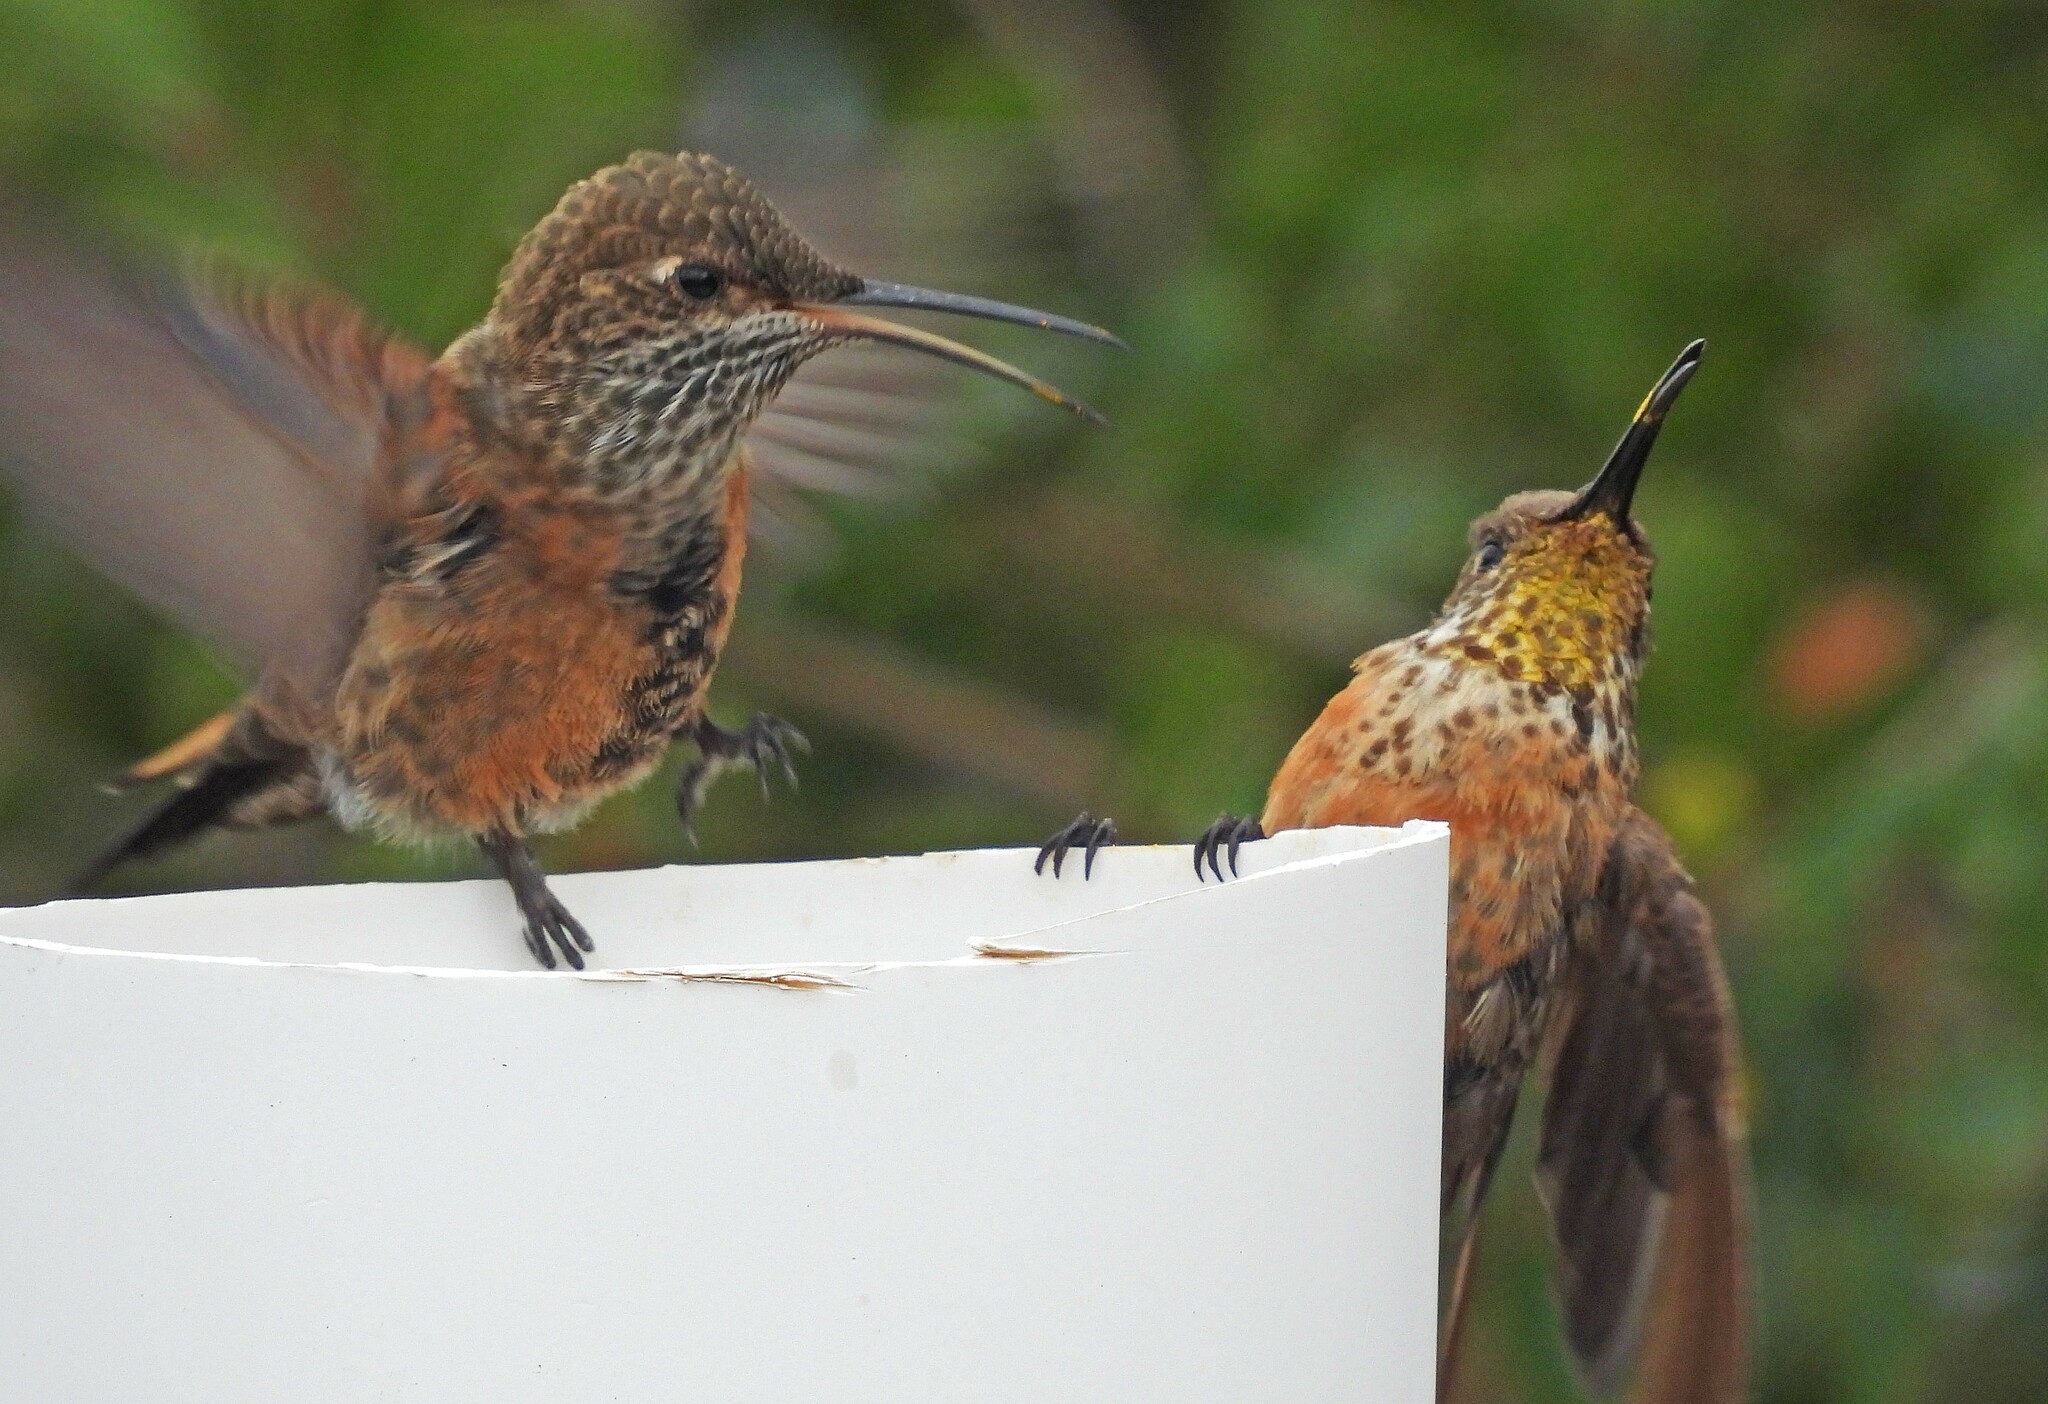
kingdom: Animalia
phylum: Chordata
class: Aves
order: Apodiformes
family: Trochilidae
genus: Oreotrochilus
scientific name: Oreotrochilus adela
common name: Wedge-tailed hillstar
